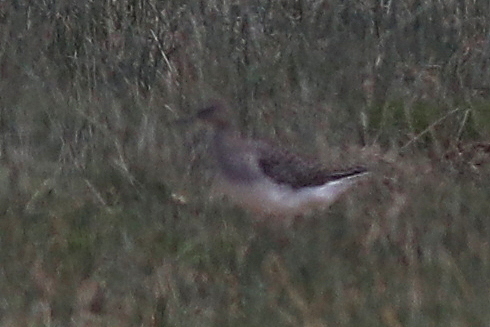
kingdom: Animalia
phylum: Chordata
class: Aves
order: Charadriiformes
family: Scolopacidae
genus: Tringa
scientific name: Tringa glareola
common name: Wood sandpiper
